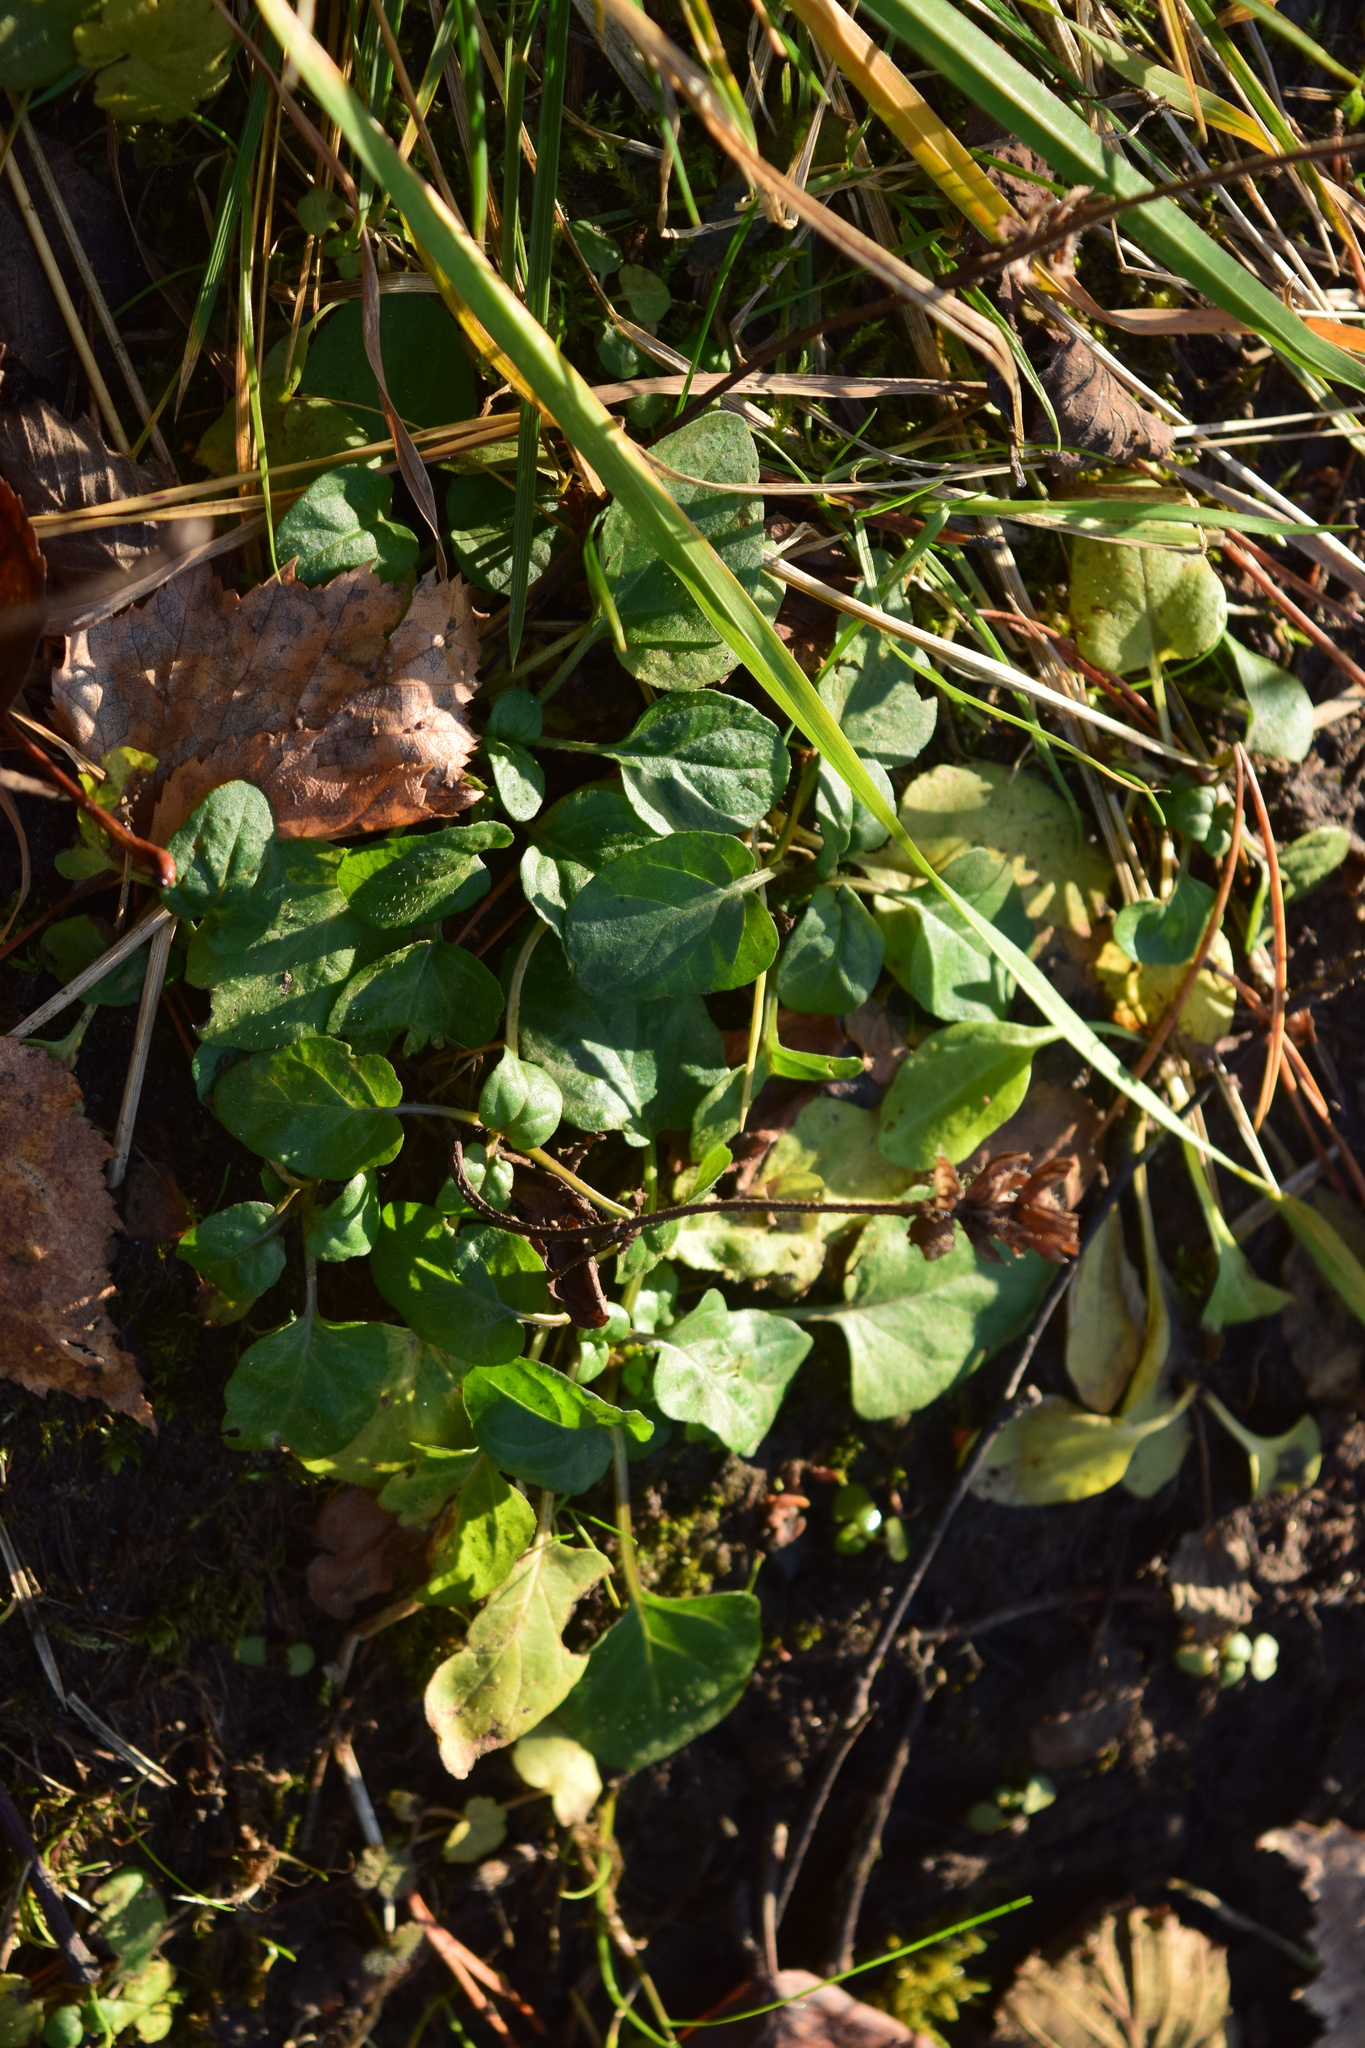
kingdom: Plantae
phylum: Tracheophyta
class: Magnoliopsida
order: Lamiales
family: Lamiaceae
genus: Prunella
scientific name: Prunella vulgaris
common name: Heal-all
